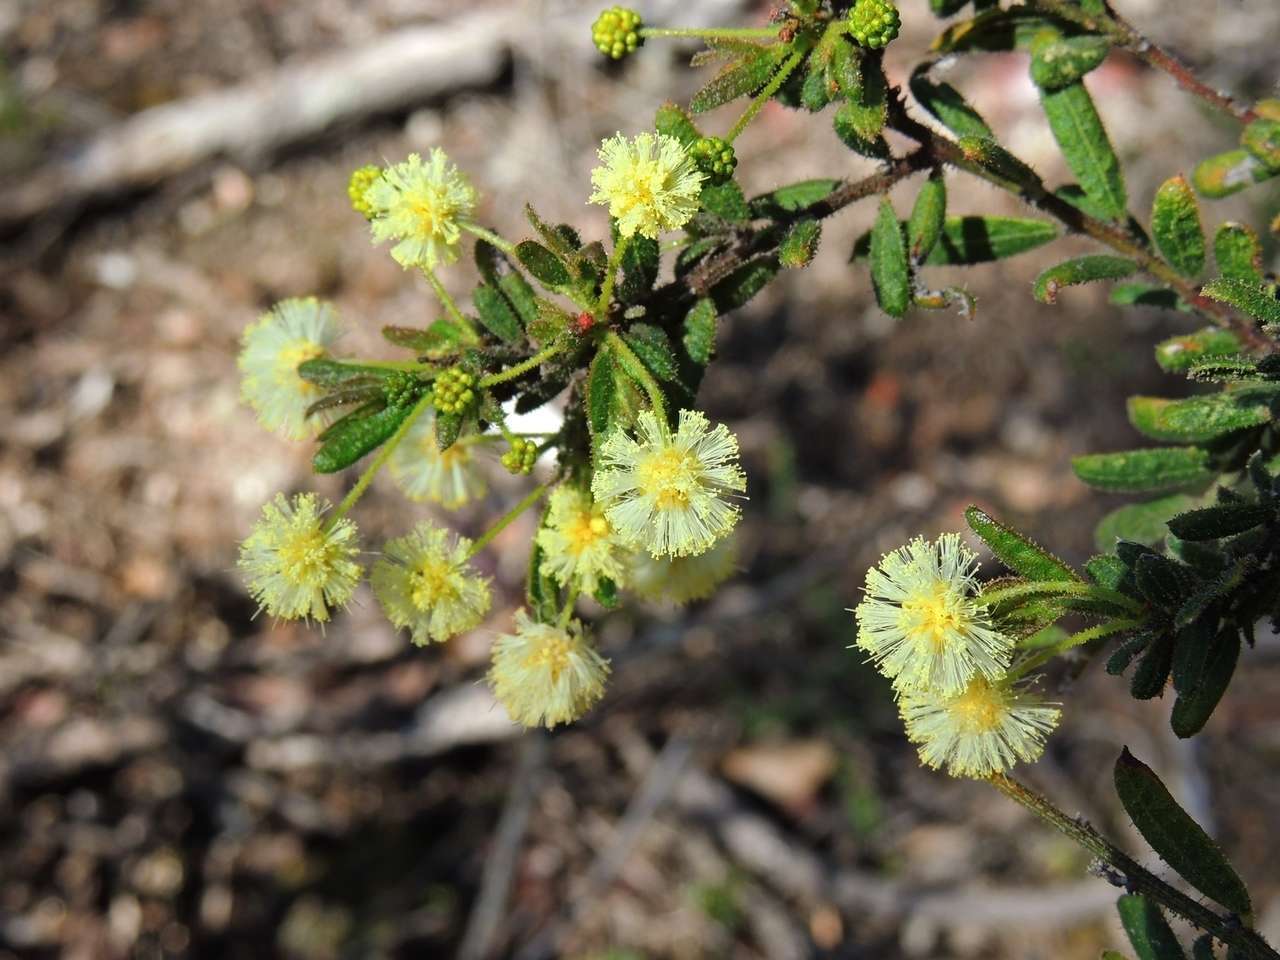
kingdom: Plantae
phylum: Tracheophyta
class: Magnoliopsida
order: Fabales
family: Fabaceae
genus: Acacia
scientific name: Acacia aspera
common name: Rough wattle
